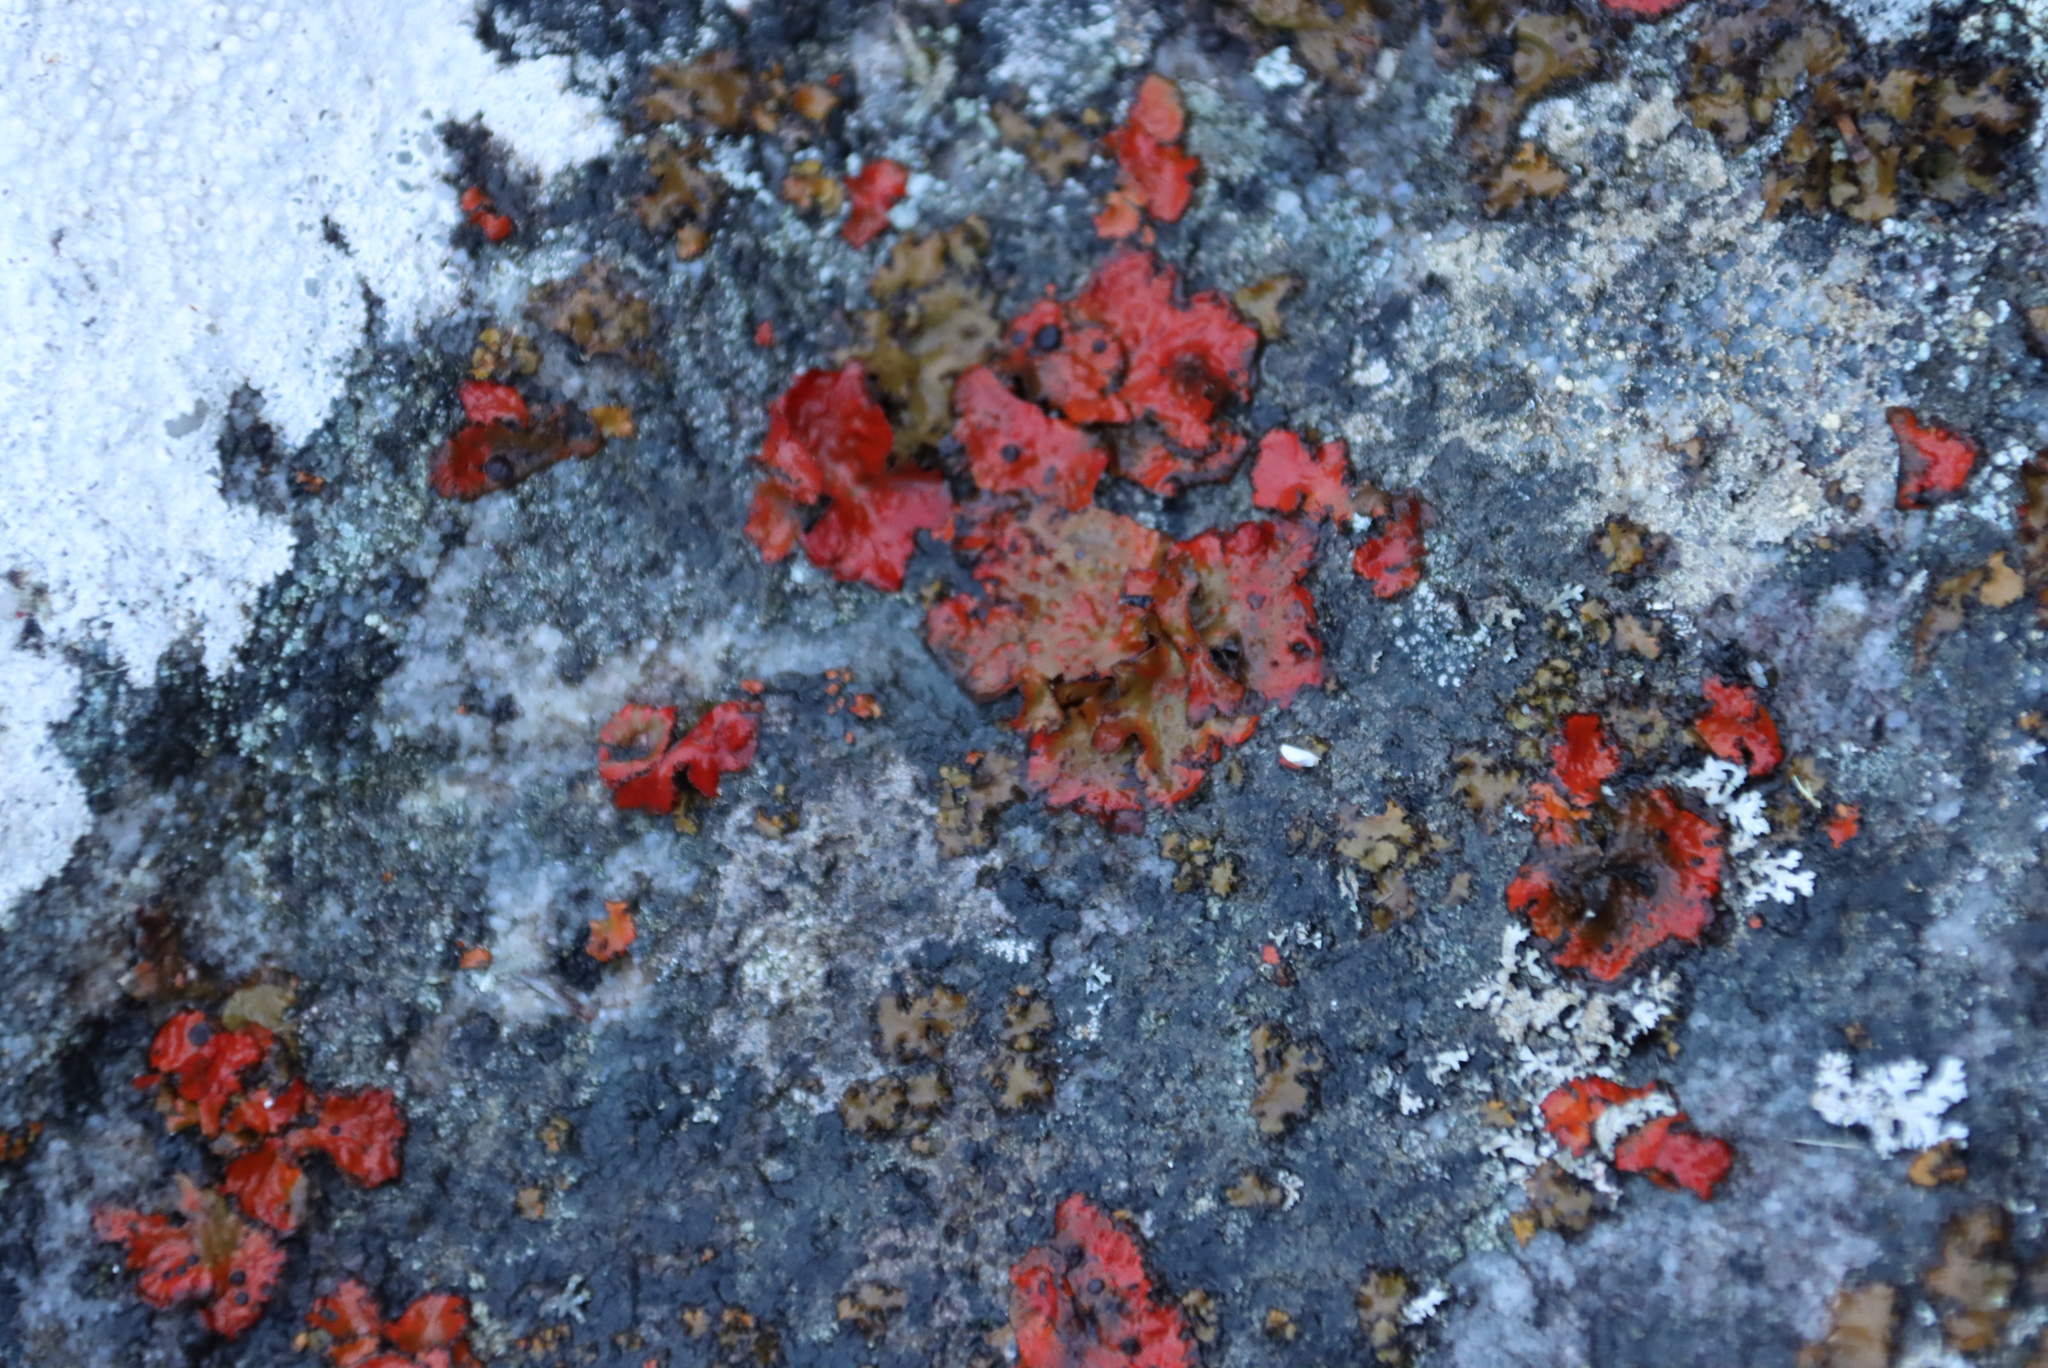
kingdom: Fungi
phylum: Ascomycota
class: Lecanoromycetes
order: Umbilicariales
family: Umbilicariaceae
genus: Lasallia
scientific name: Lasallia rubiginosa
